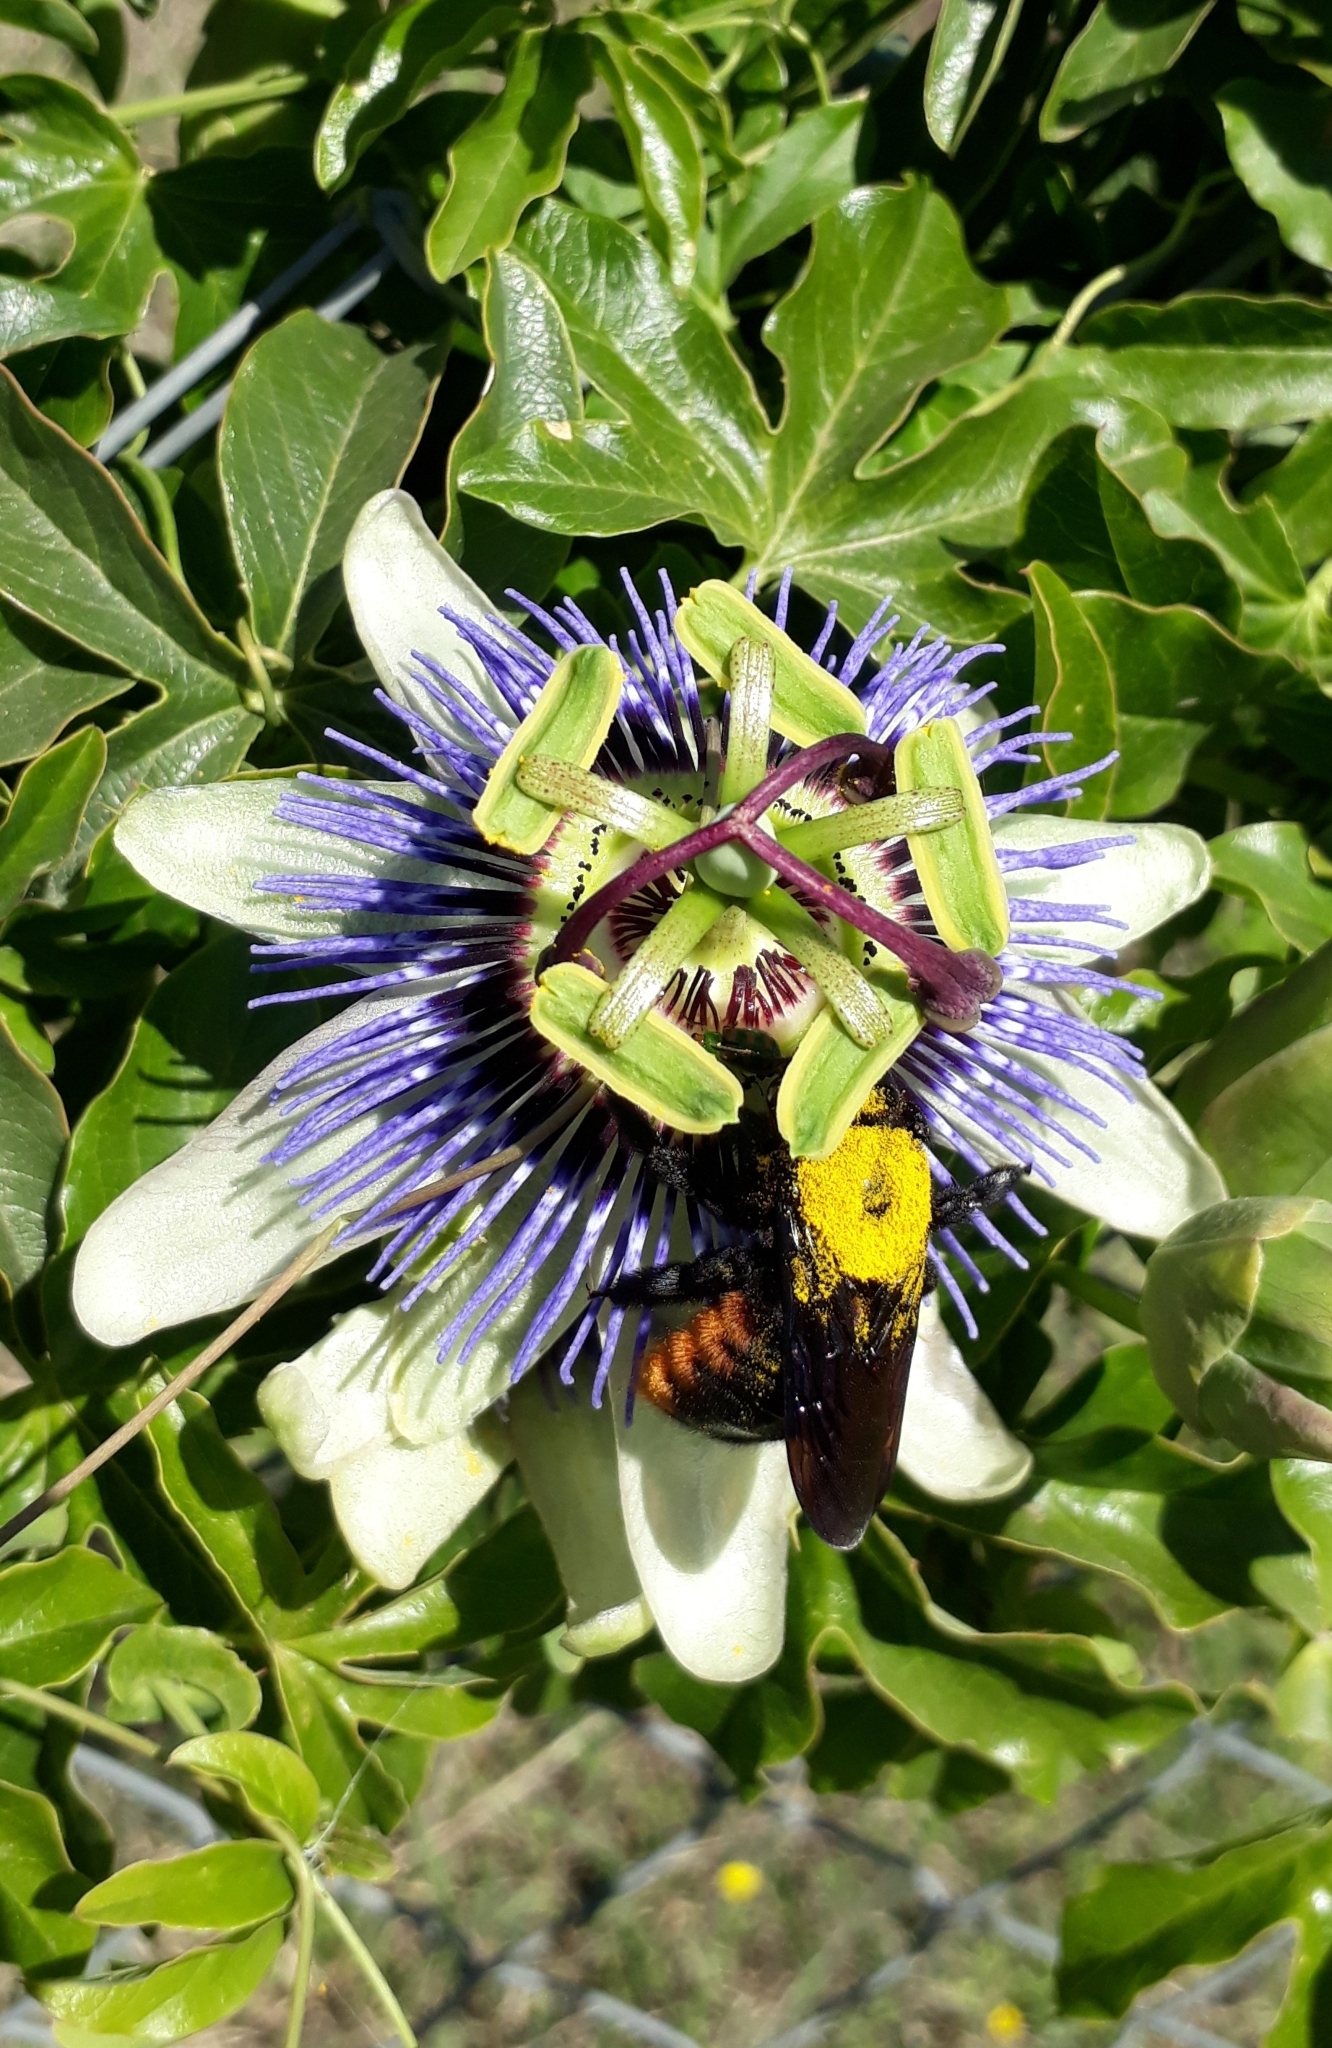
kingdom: Animalia
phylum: Arthropoda
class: Insecta
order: Hymenoptera
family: Apidae
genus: Xylocopa
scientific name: Xylocopa augusti
